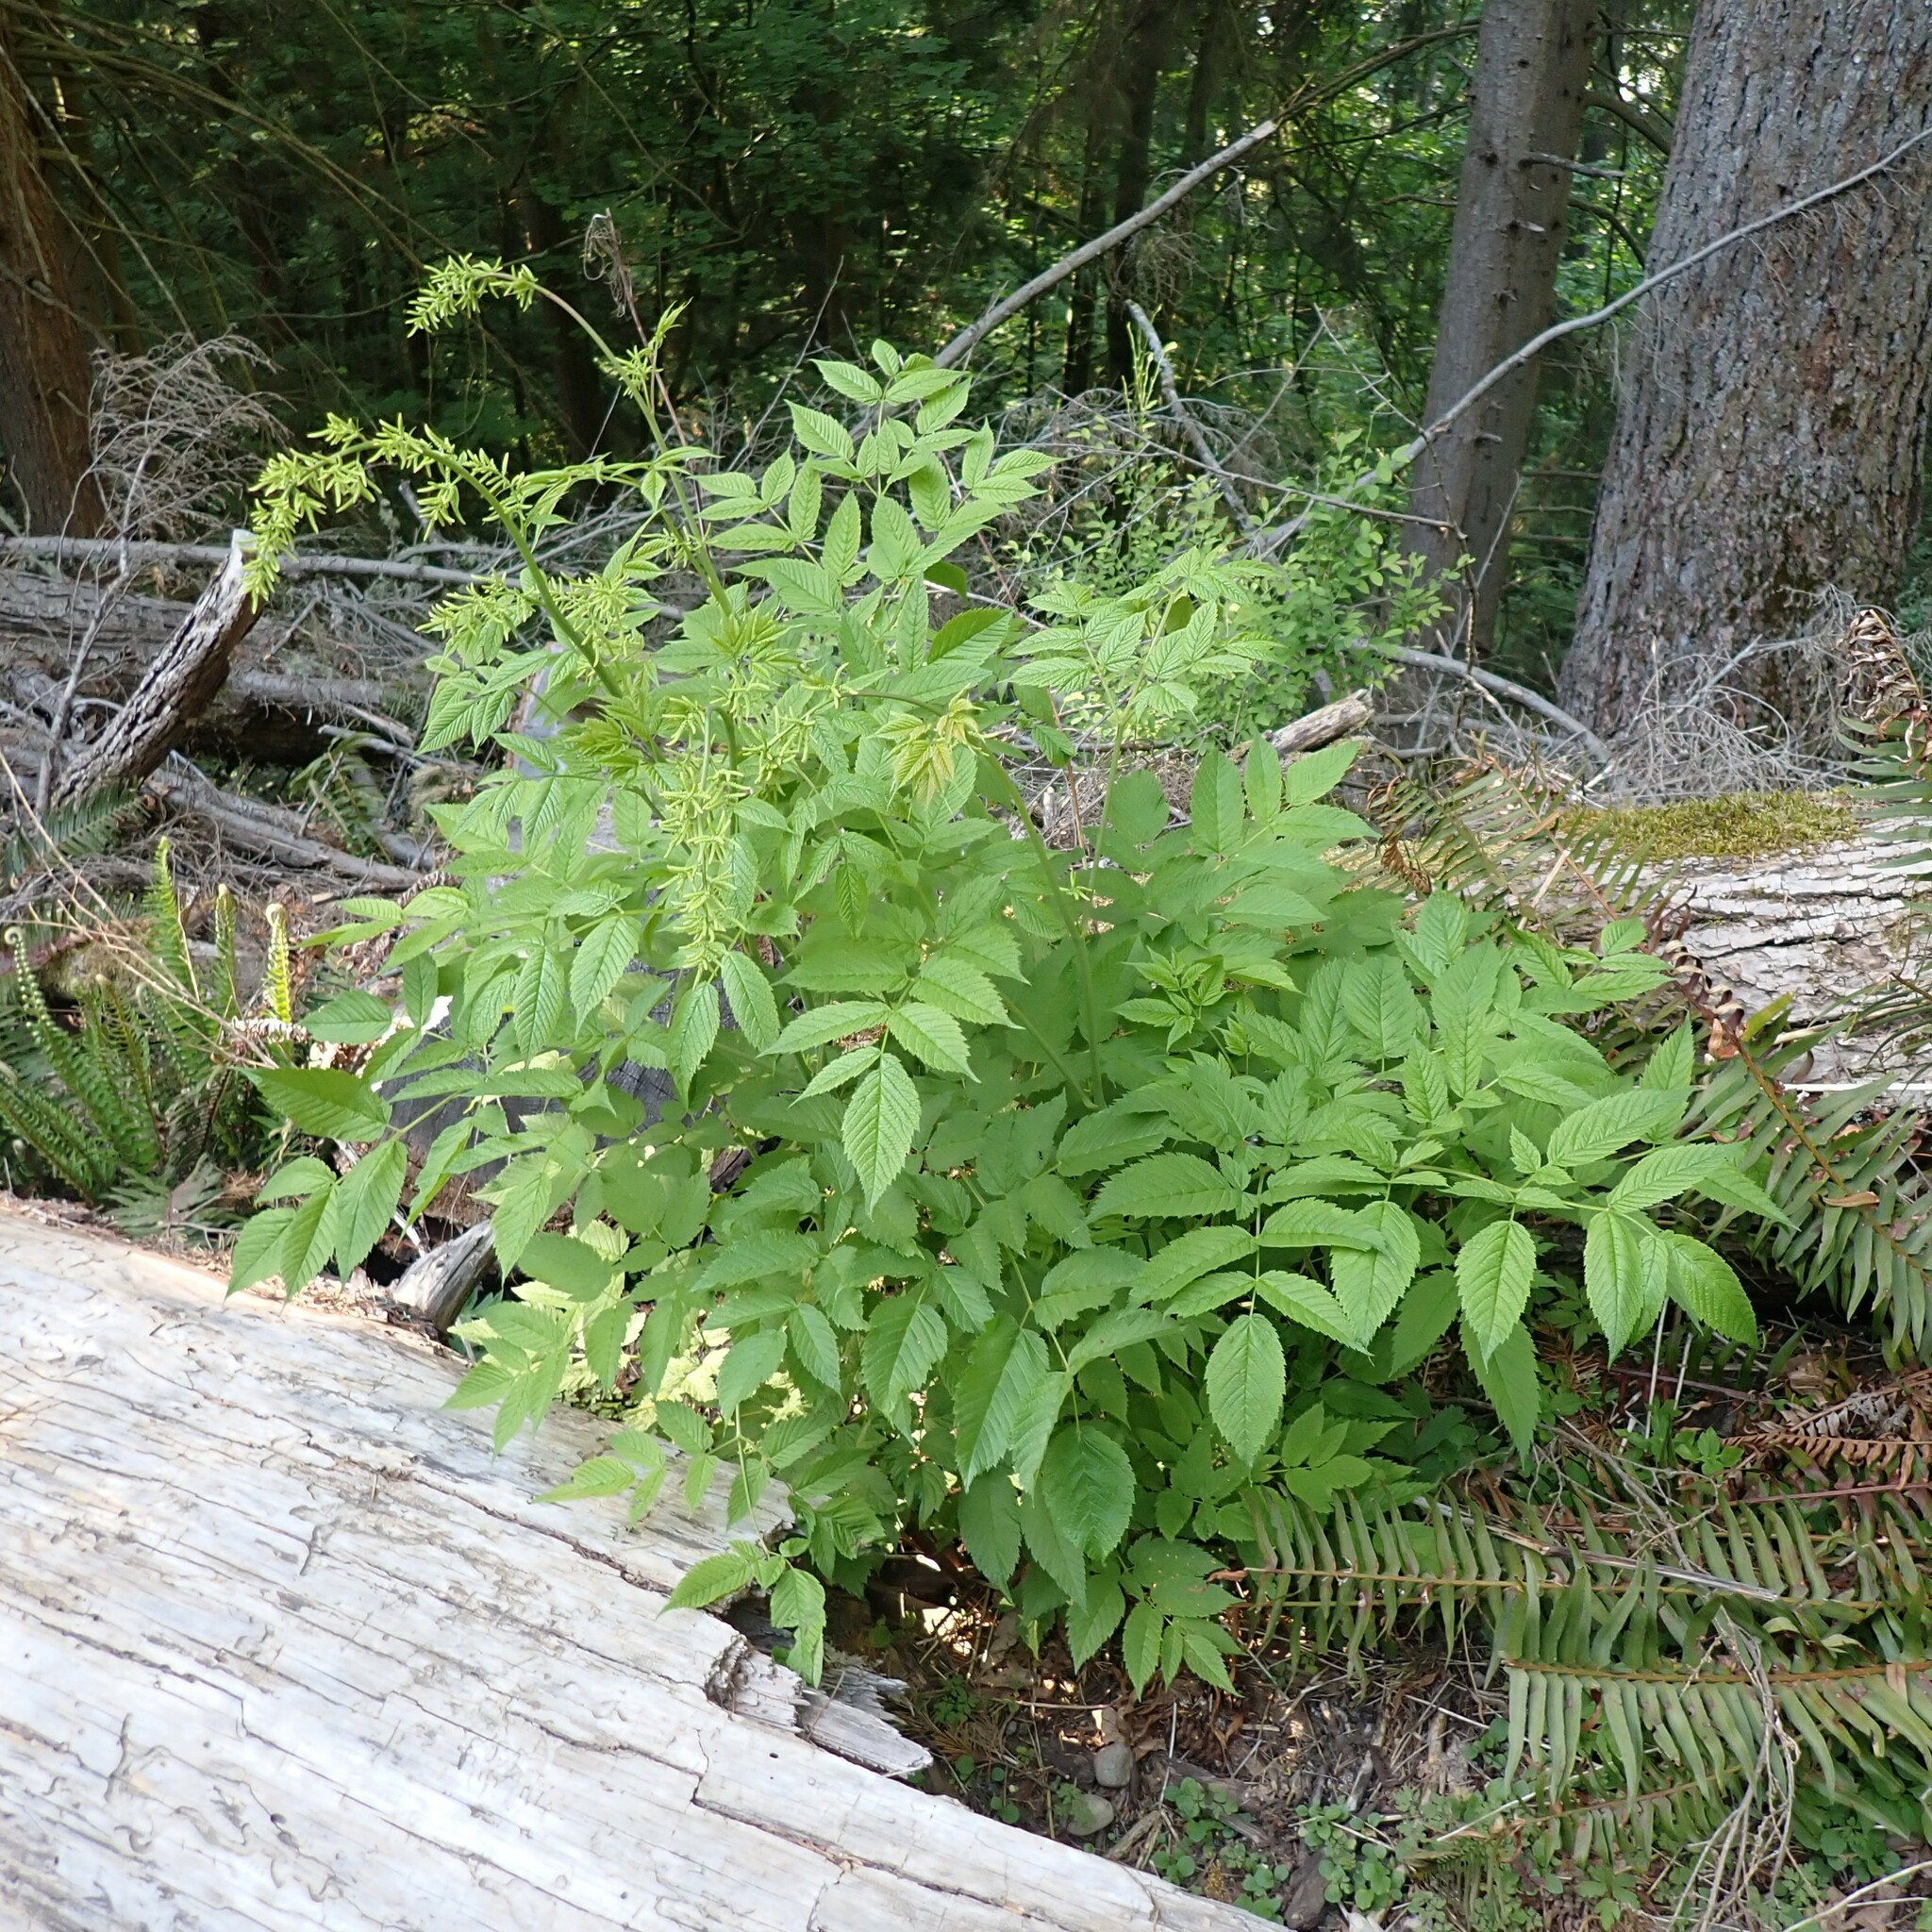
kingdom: Plantae
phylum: Tracheophyta
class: Magnoliopsida
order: Rosales
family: Rosaceae
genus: Aruncus
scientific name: Aruncus dioicus
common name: Buck's-beard
